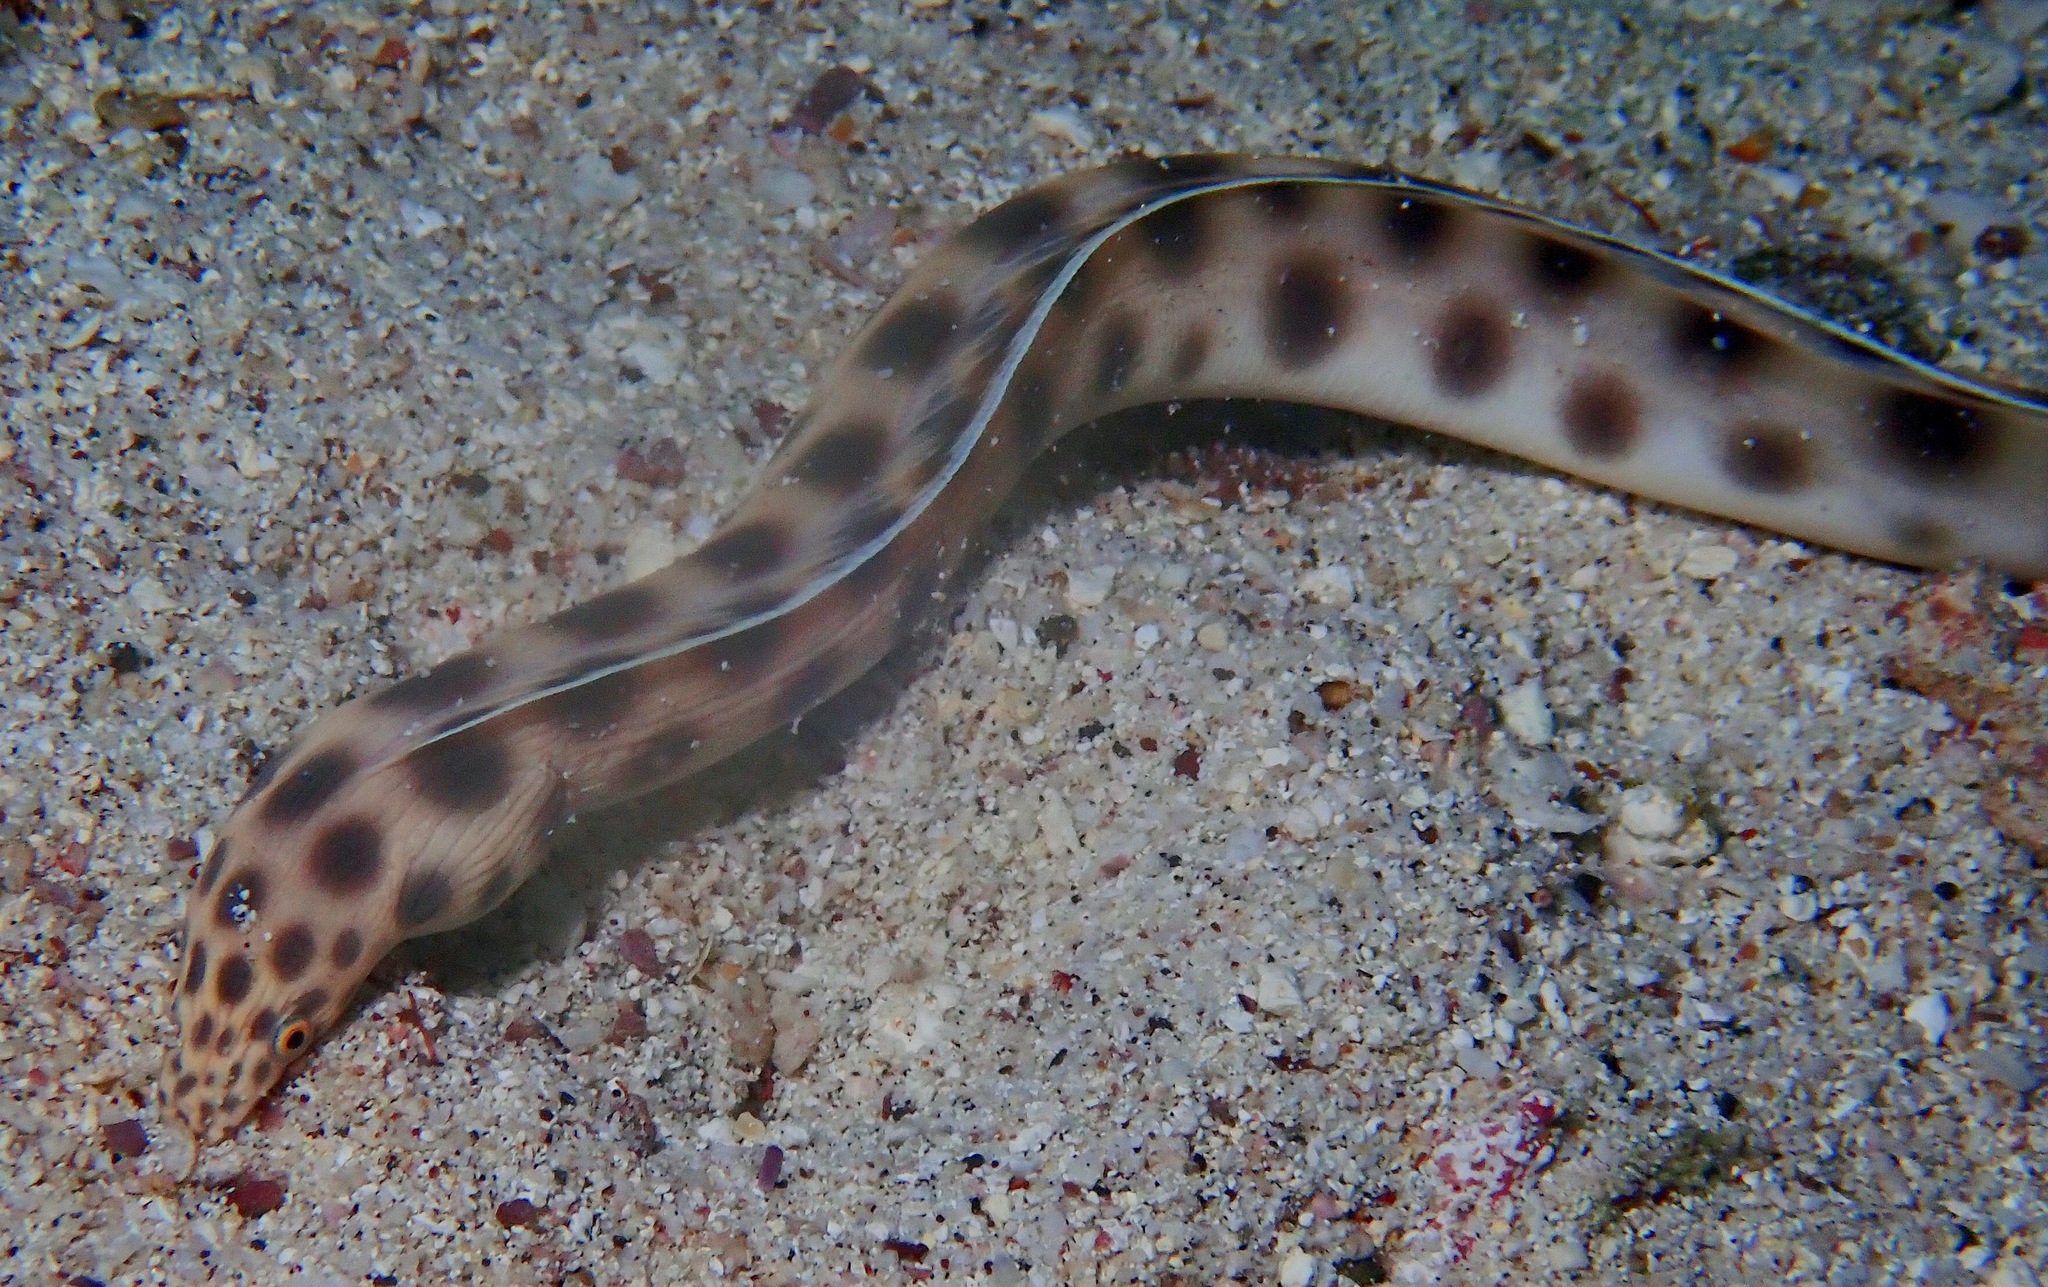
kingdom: Animalia
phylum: Chordata
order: Anguilliformes
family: Ophichthidae
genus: Myrichthys
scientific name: Myrichthys xysturus
